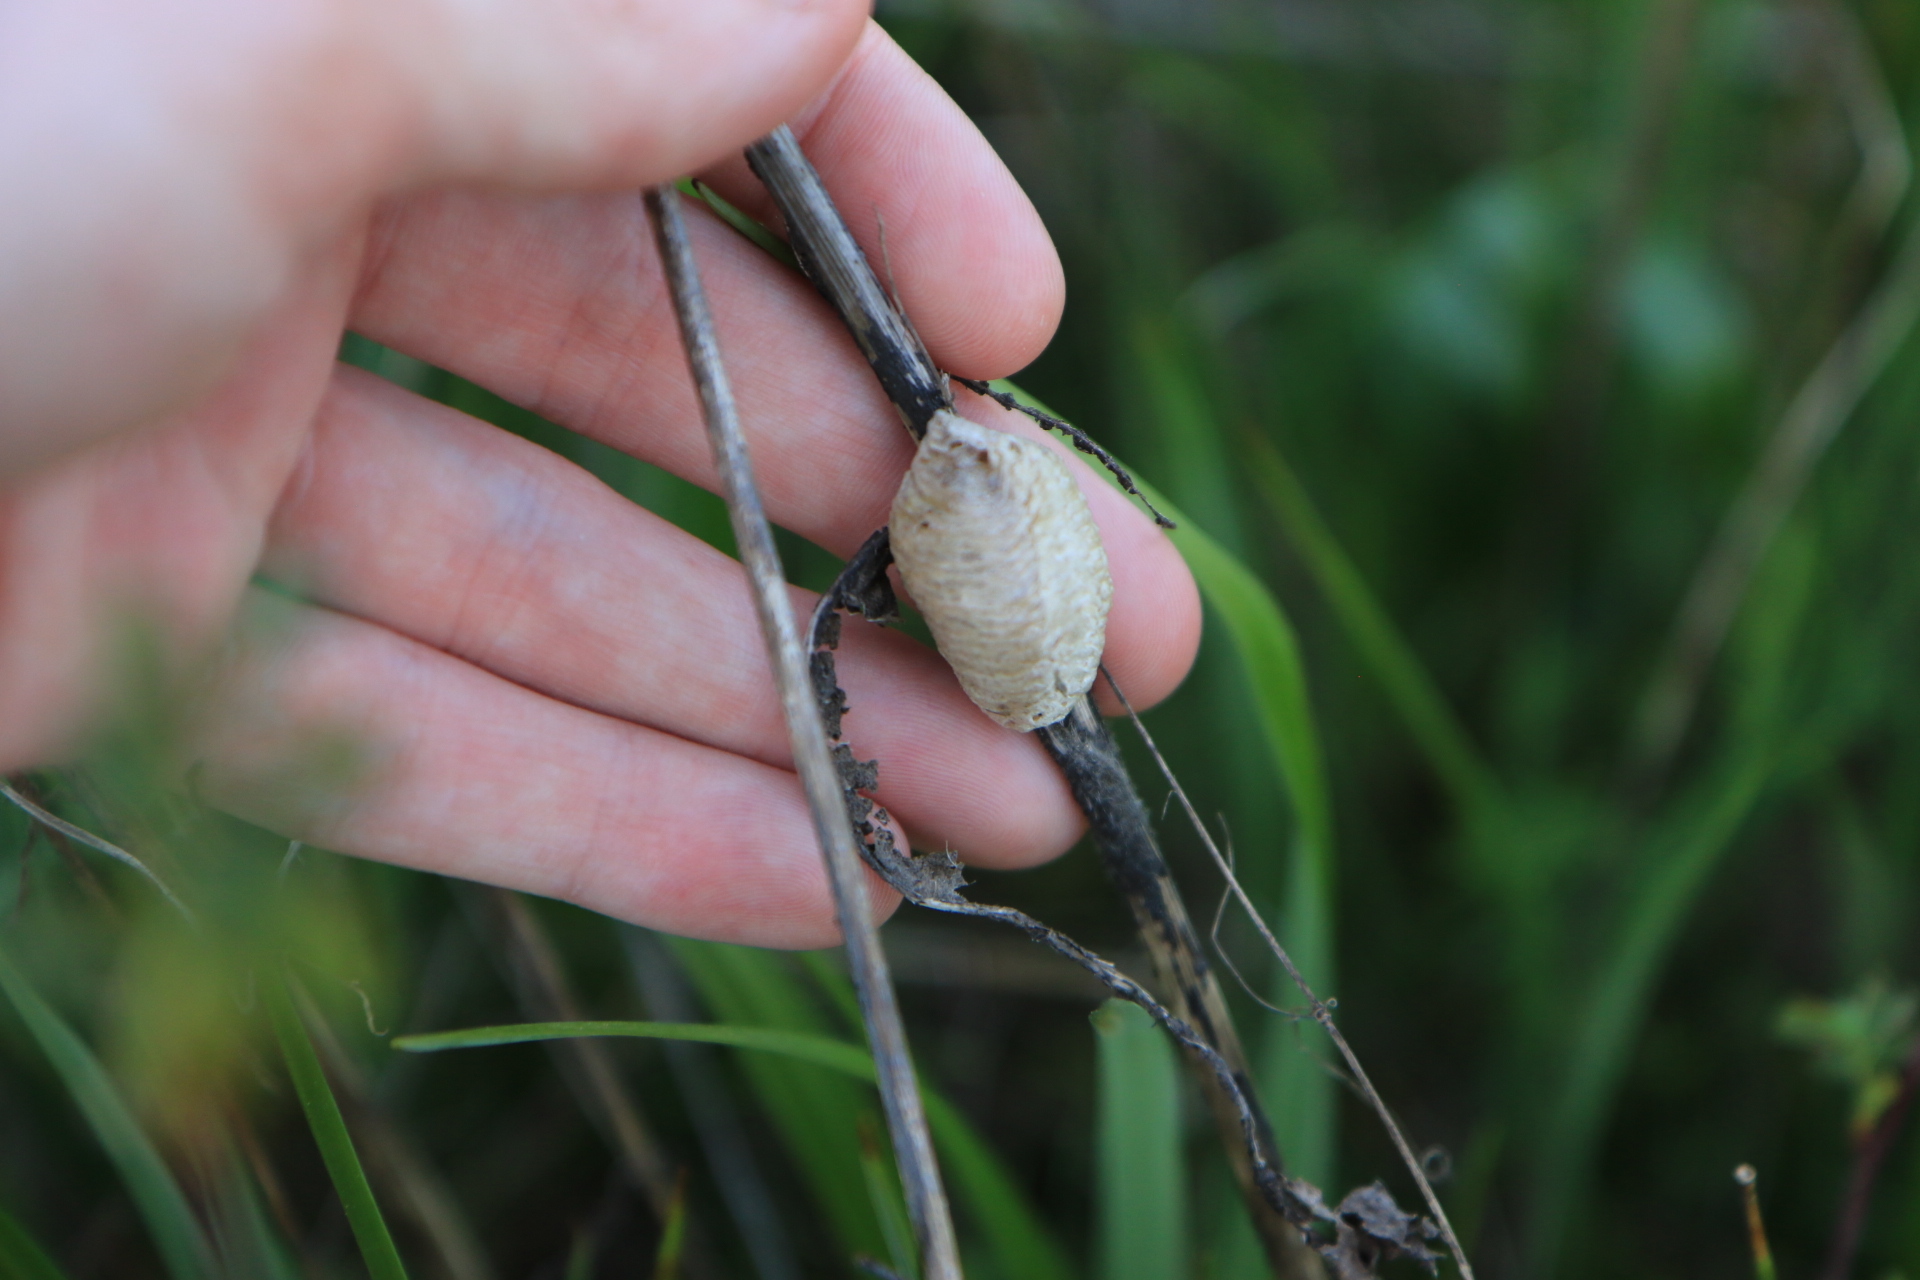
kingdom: Animalia
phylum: Arthropoda
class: Insecta
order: Mantodea
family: Mantidae
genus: Mantis
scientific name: Mantis religiosa
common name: Praying mantis
